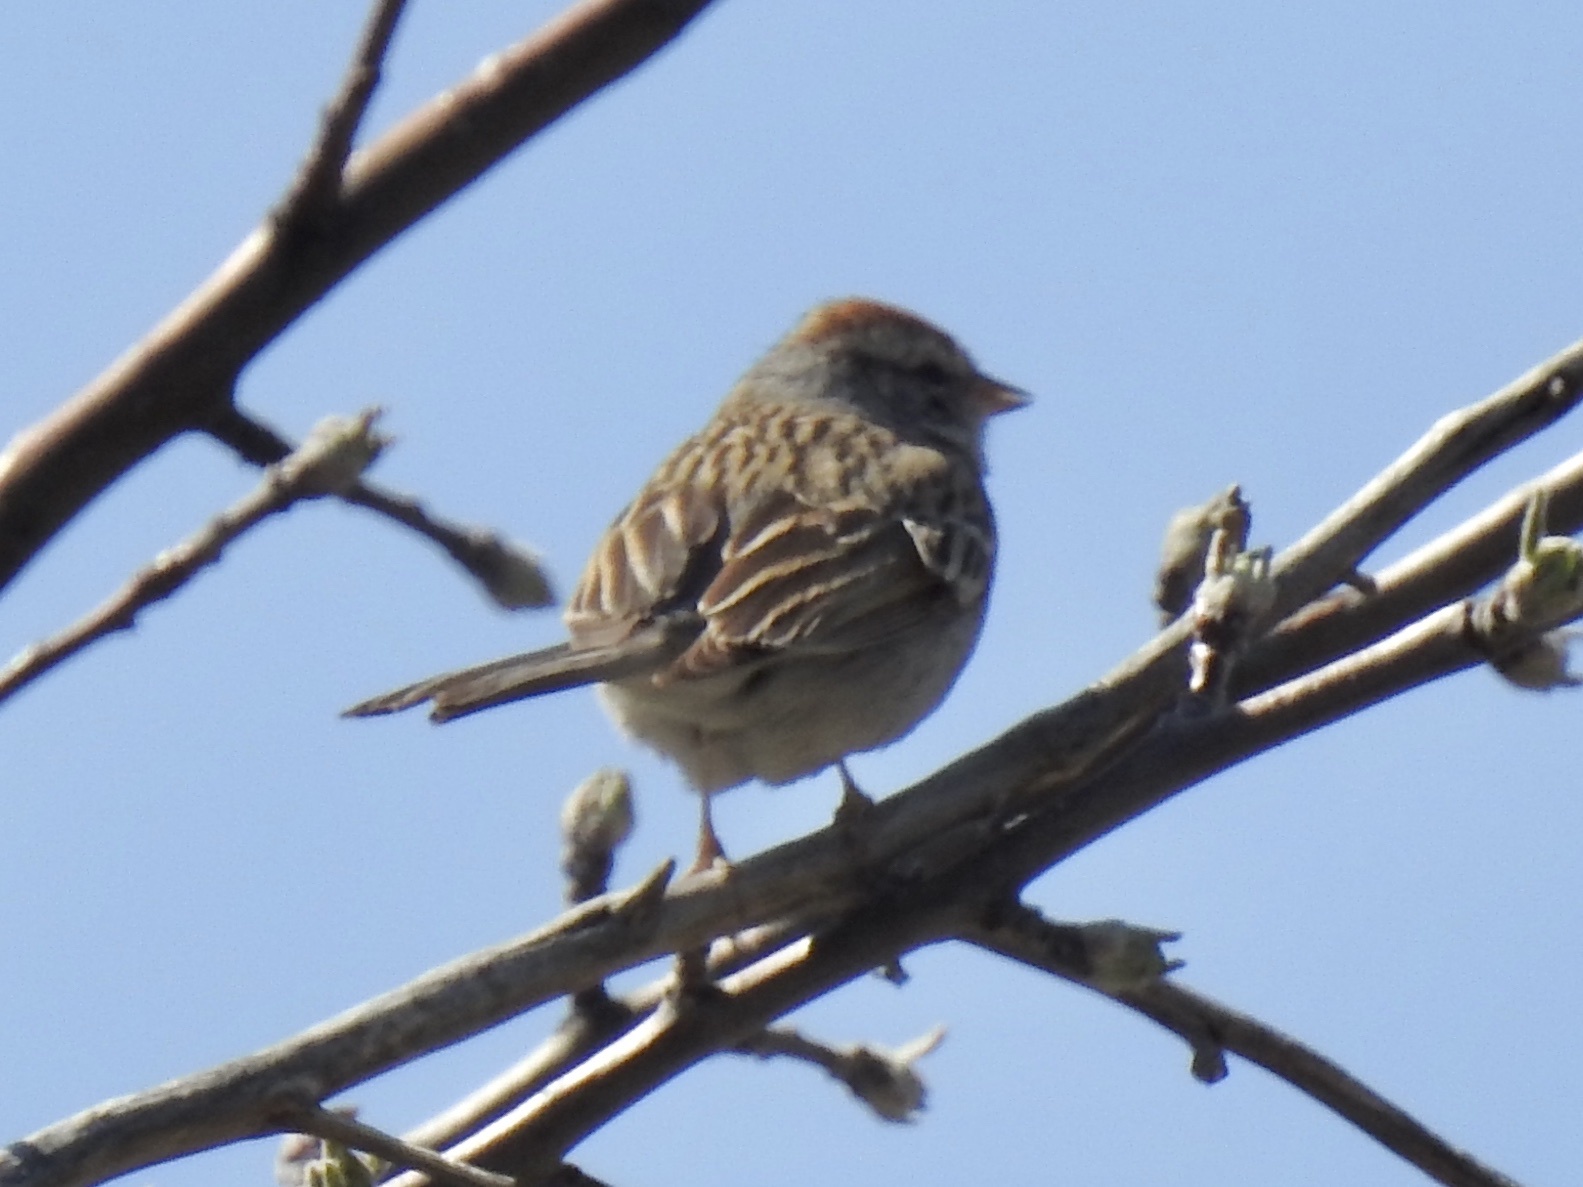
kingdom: Animalia
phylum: Chordata
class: Aves
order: Passeriformes
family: Passerellidae
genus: Spizella
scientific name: Spizella passerina
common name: Chipping sparrow
